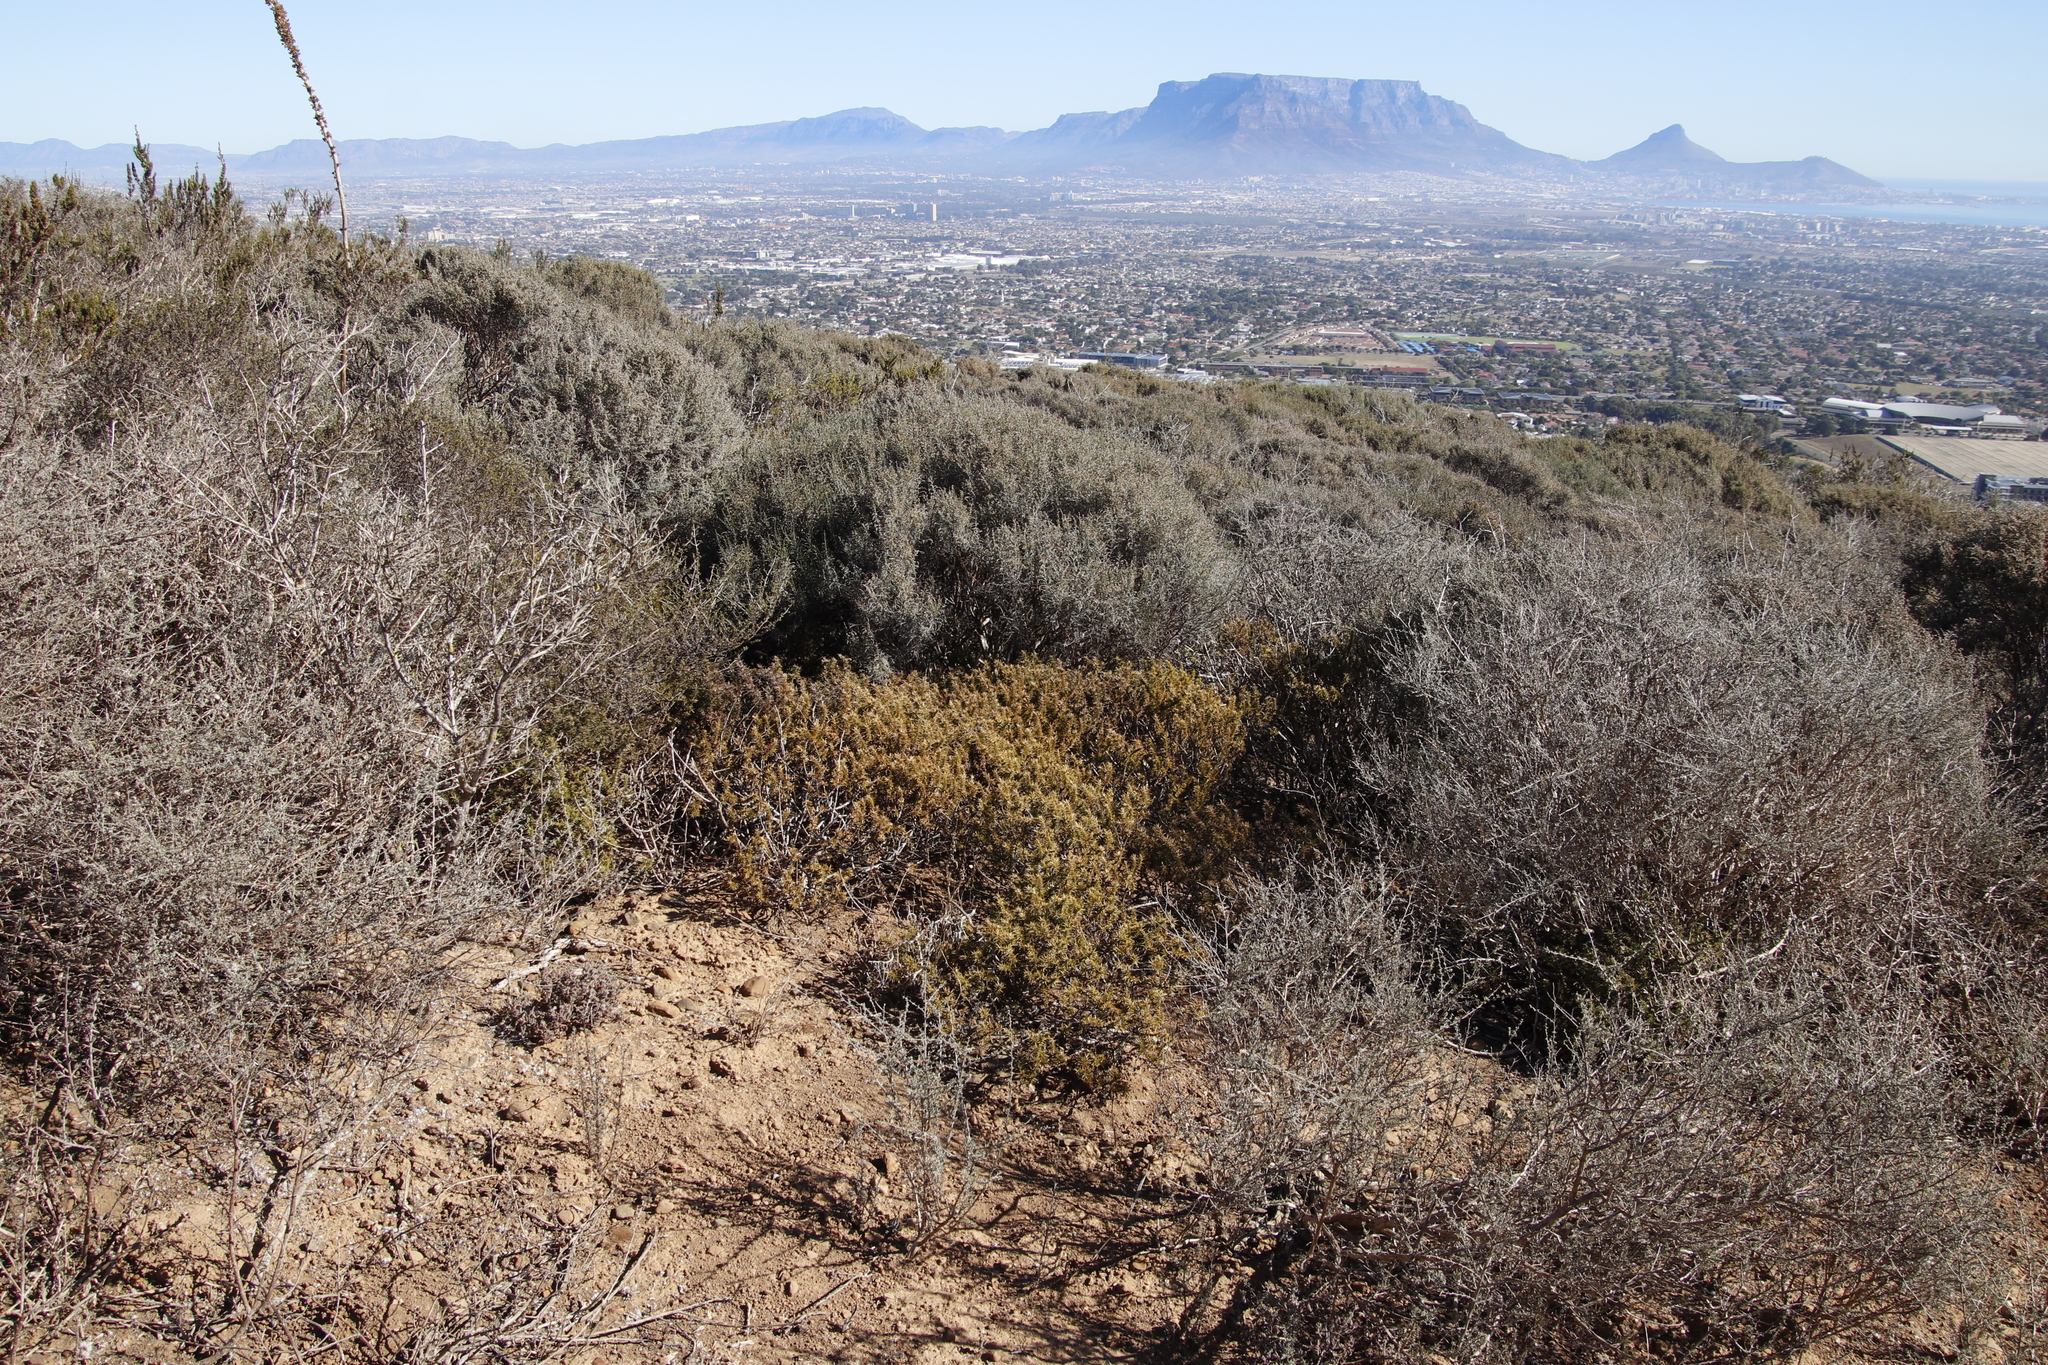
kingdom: Plantae
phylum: Tracheophyta
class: Magnoliopsida
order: Fabales
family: Polygalaceae
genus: Muraltia
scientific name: Muraltia ononidifolia
